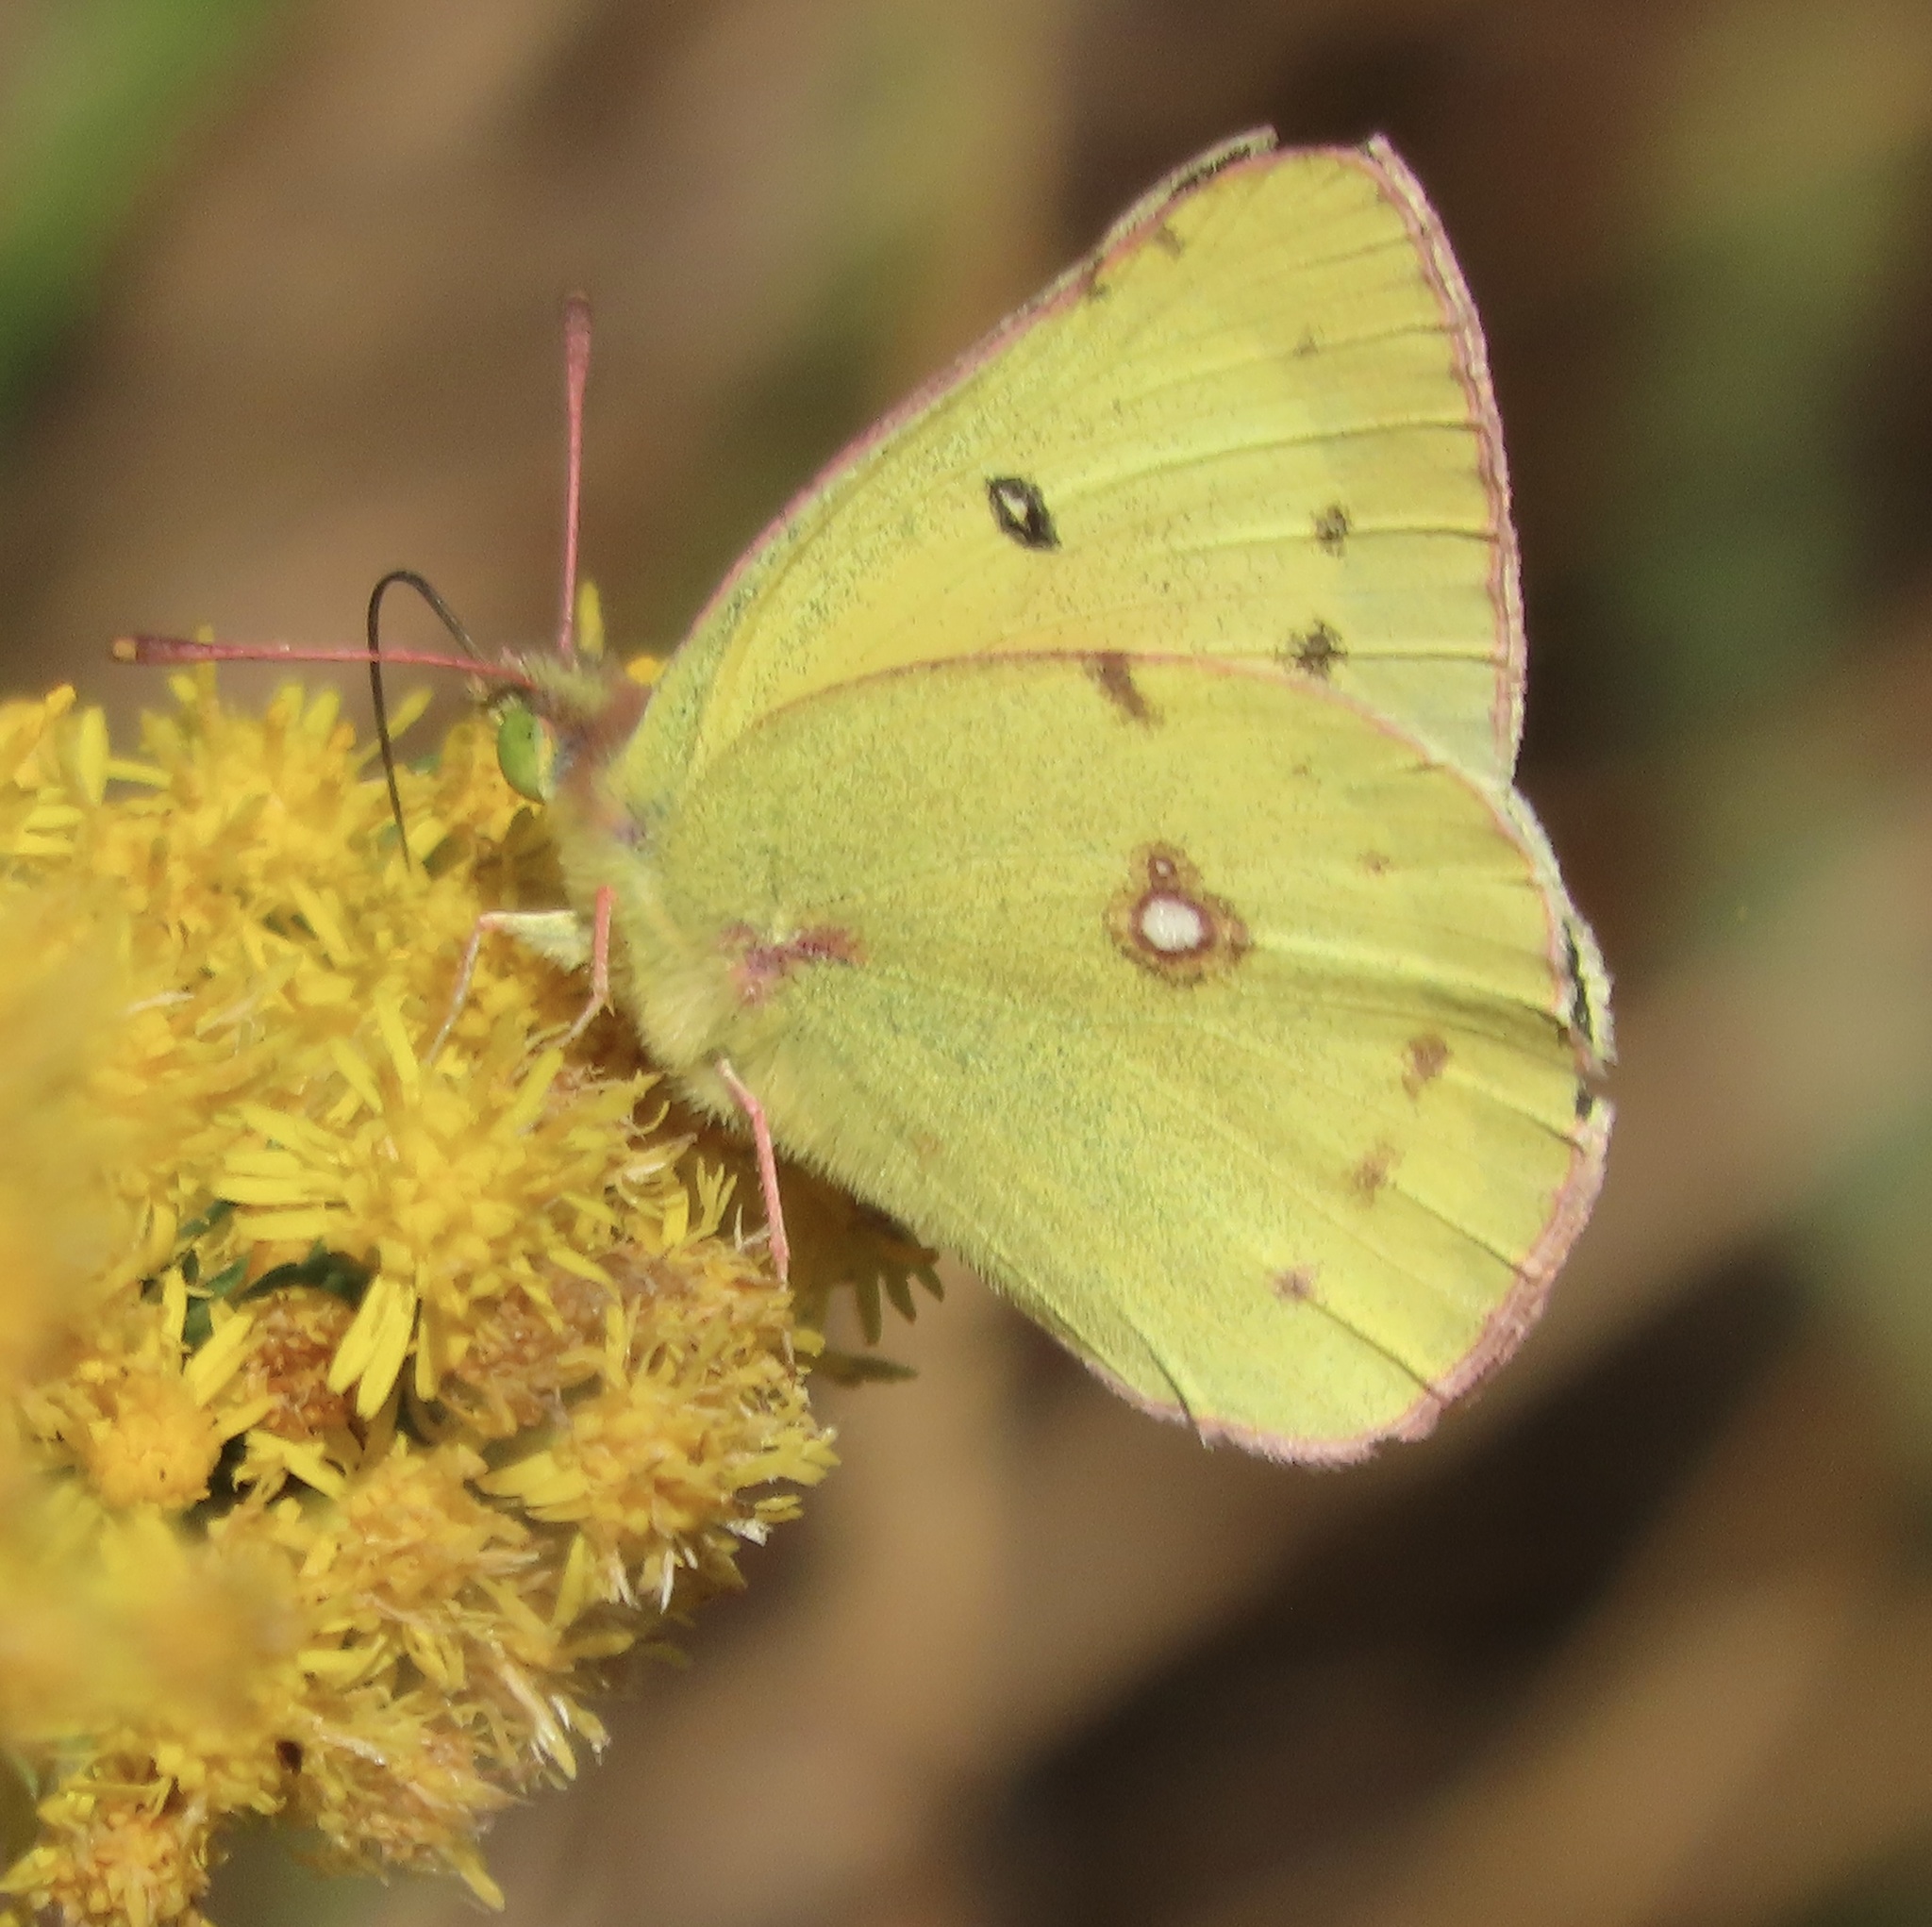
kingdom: Animalia
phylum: Arthropoda
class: Insecta
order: Lepidoptera
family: Pieridae
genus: Colias
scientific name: Colias eurytheme
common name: Alfalfa butterfly
